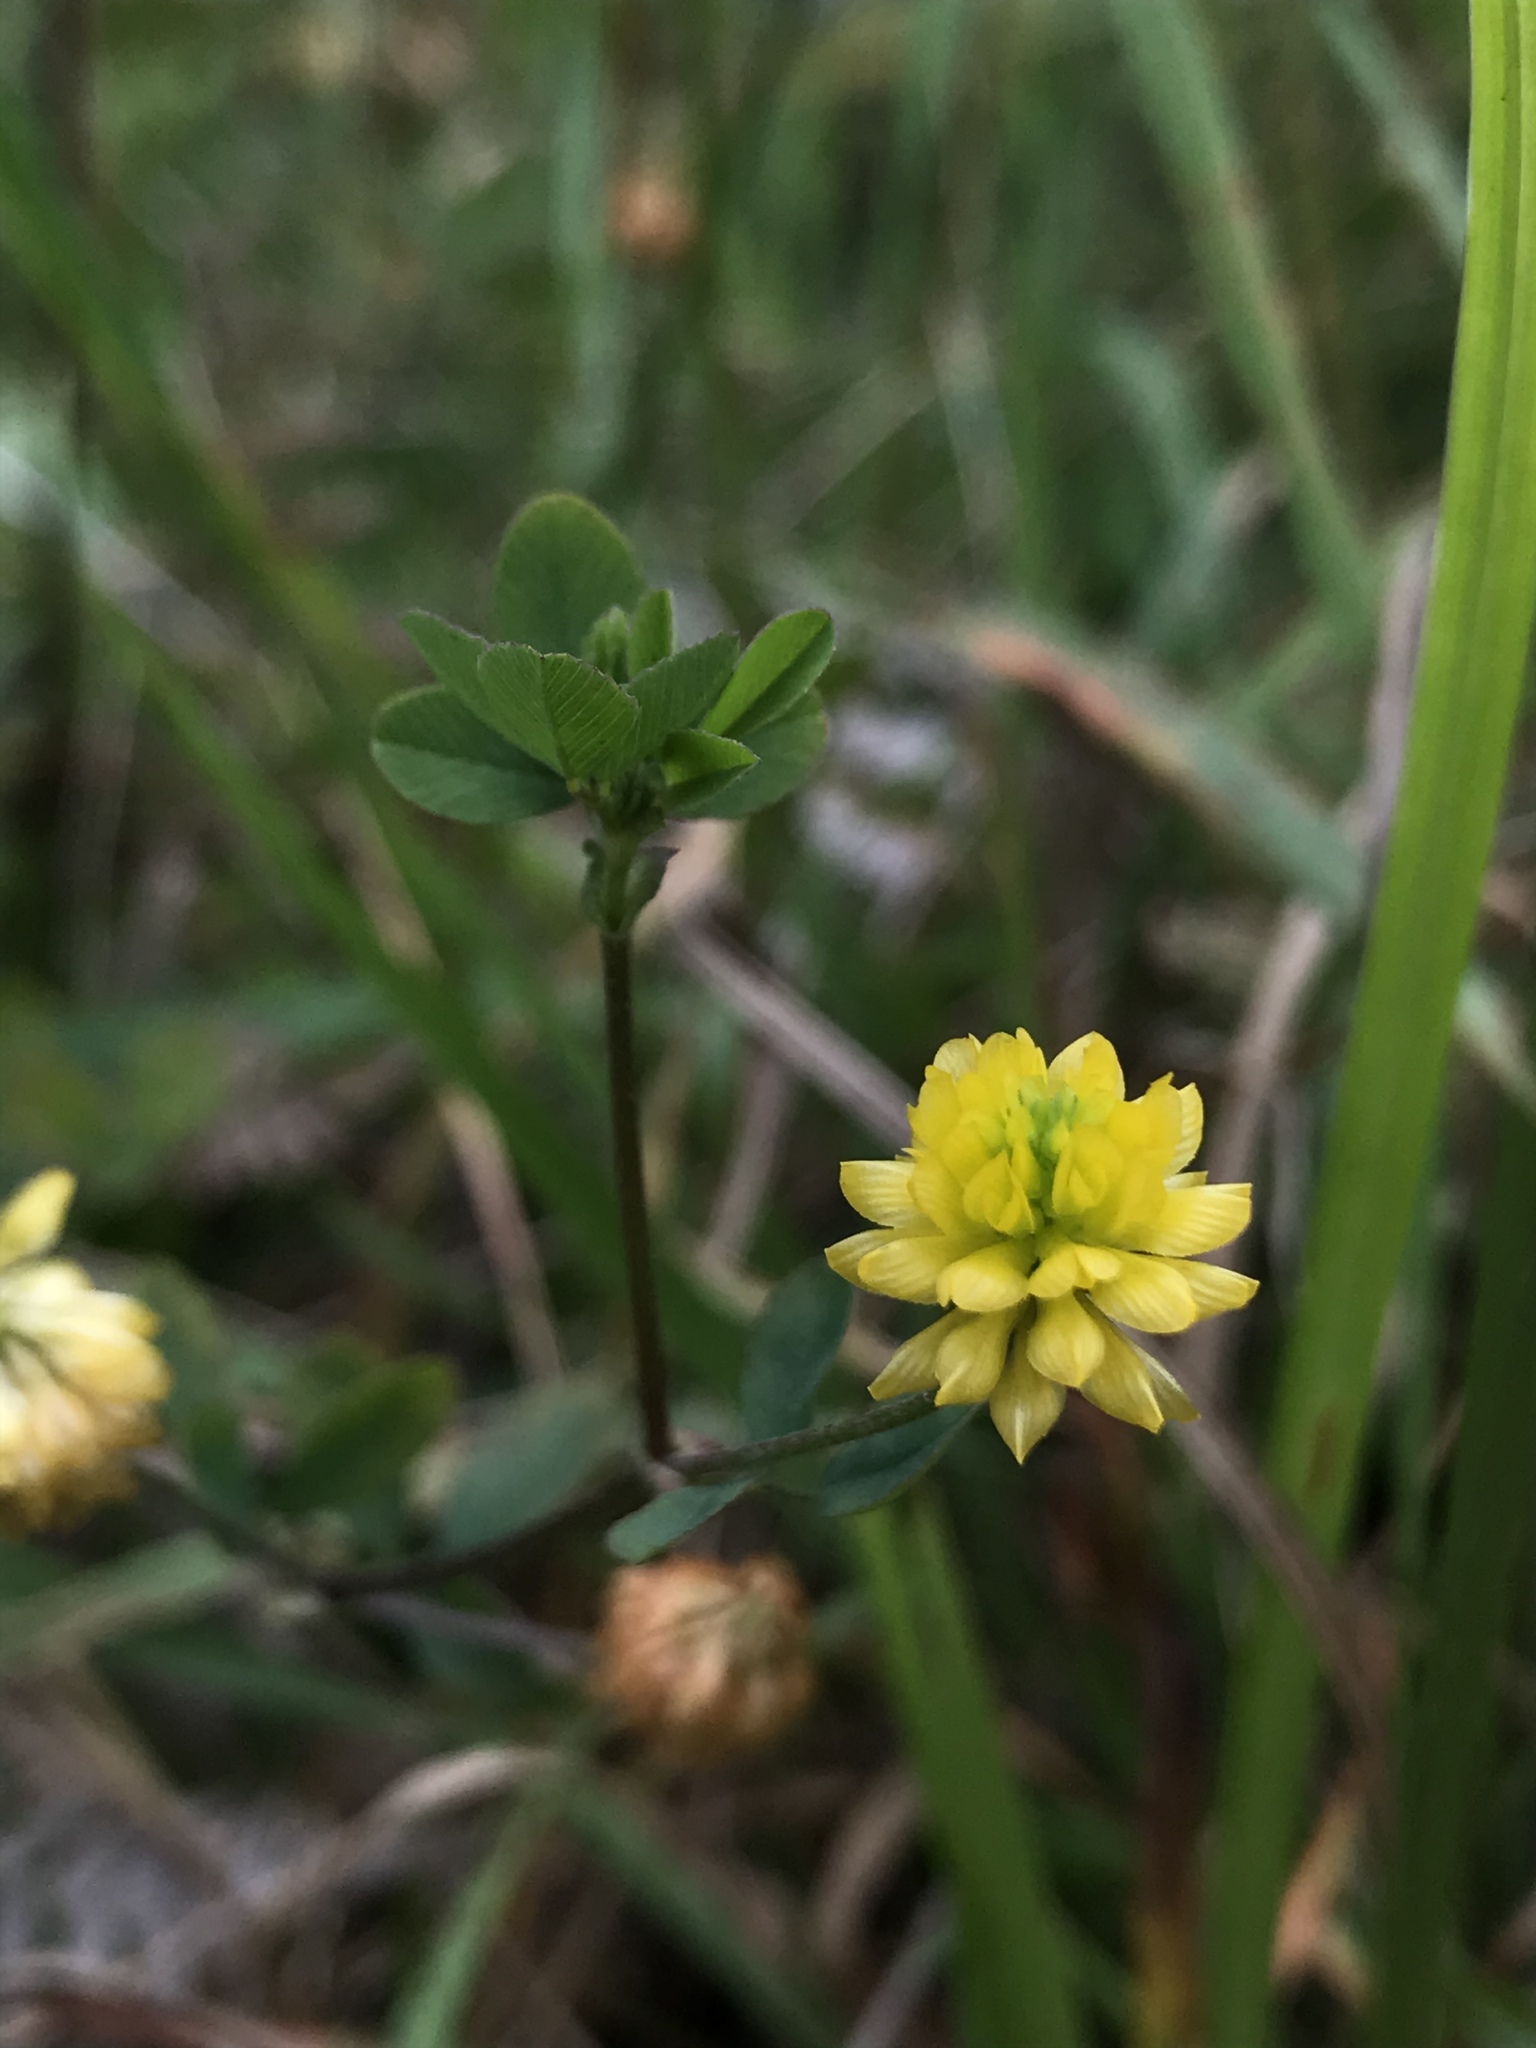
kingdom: Plantae
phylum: Tracheophyta
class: Magnoliopsida
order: Fabales
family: Fabaceae
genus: Trifolium
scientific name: Trifolium dubium
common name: Suckling clover
